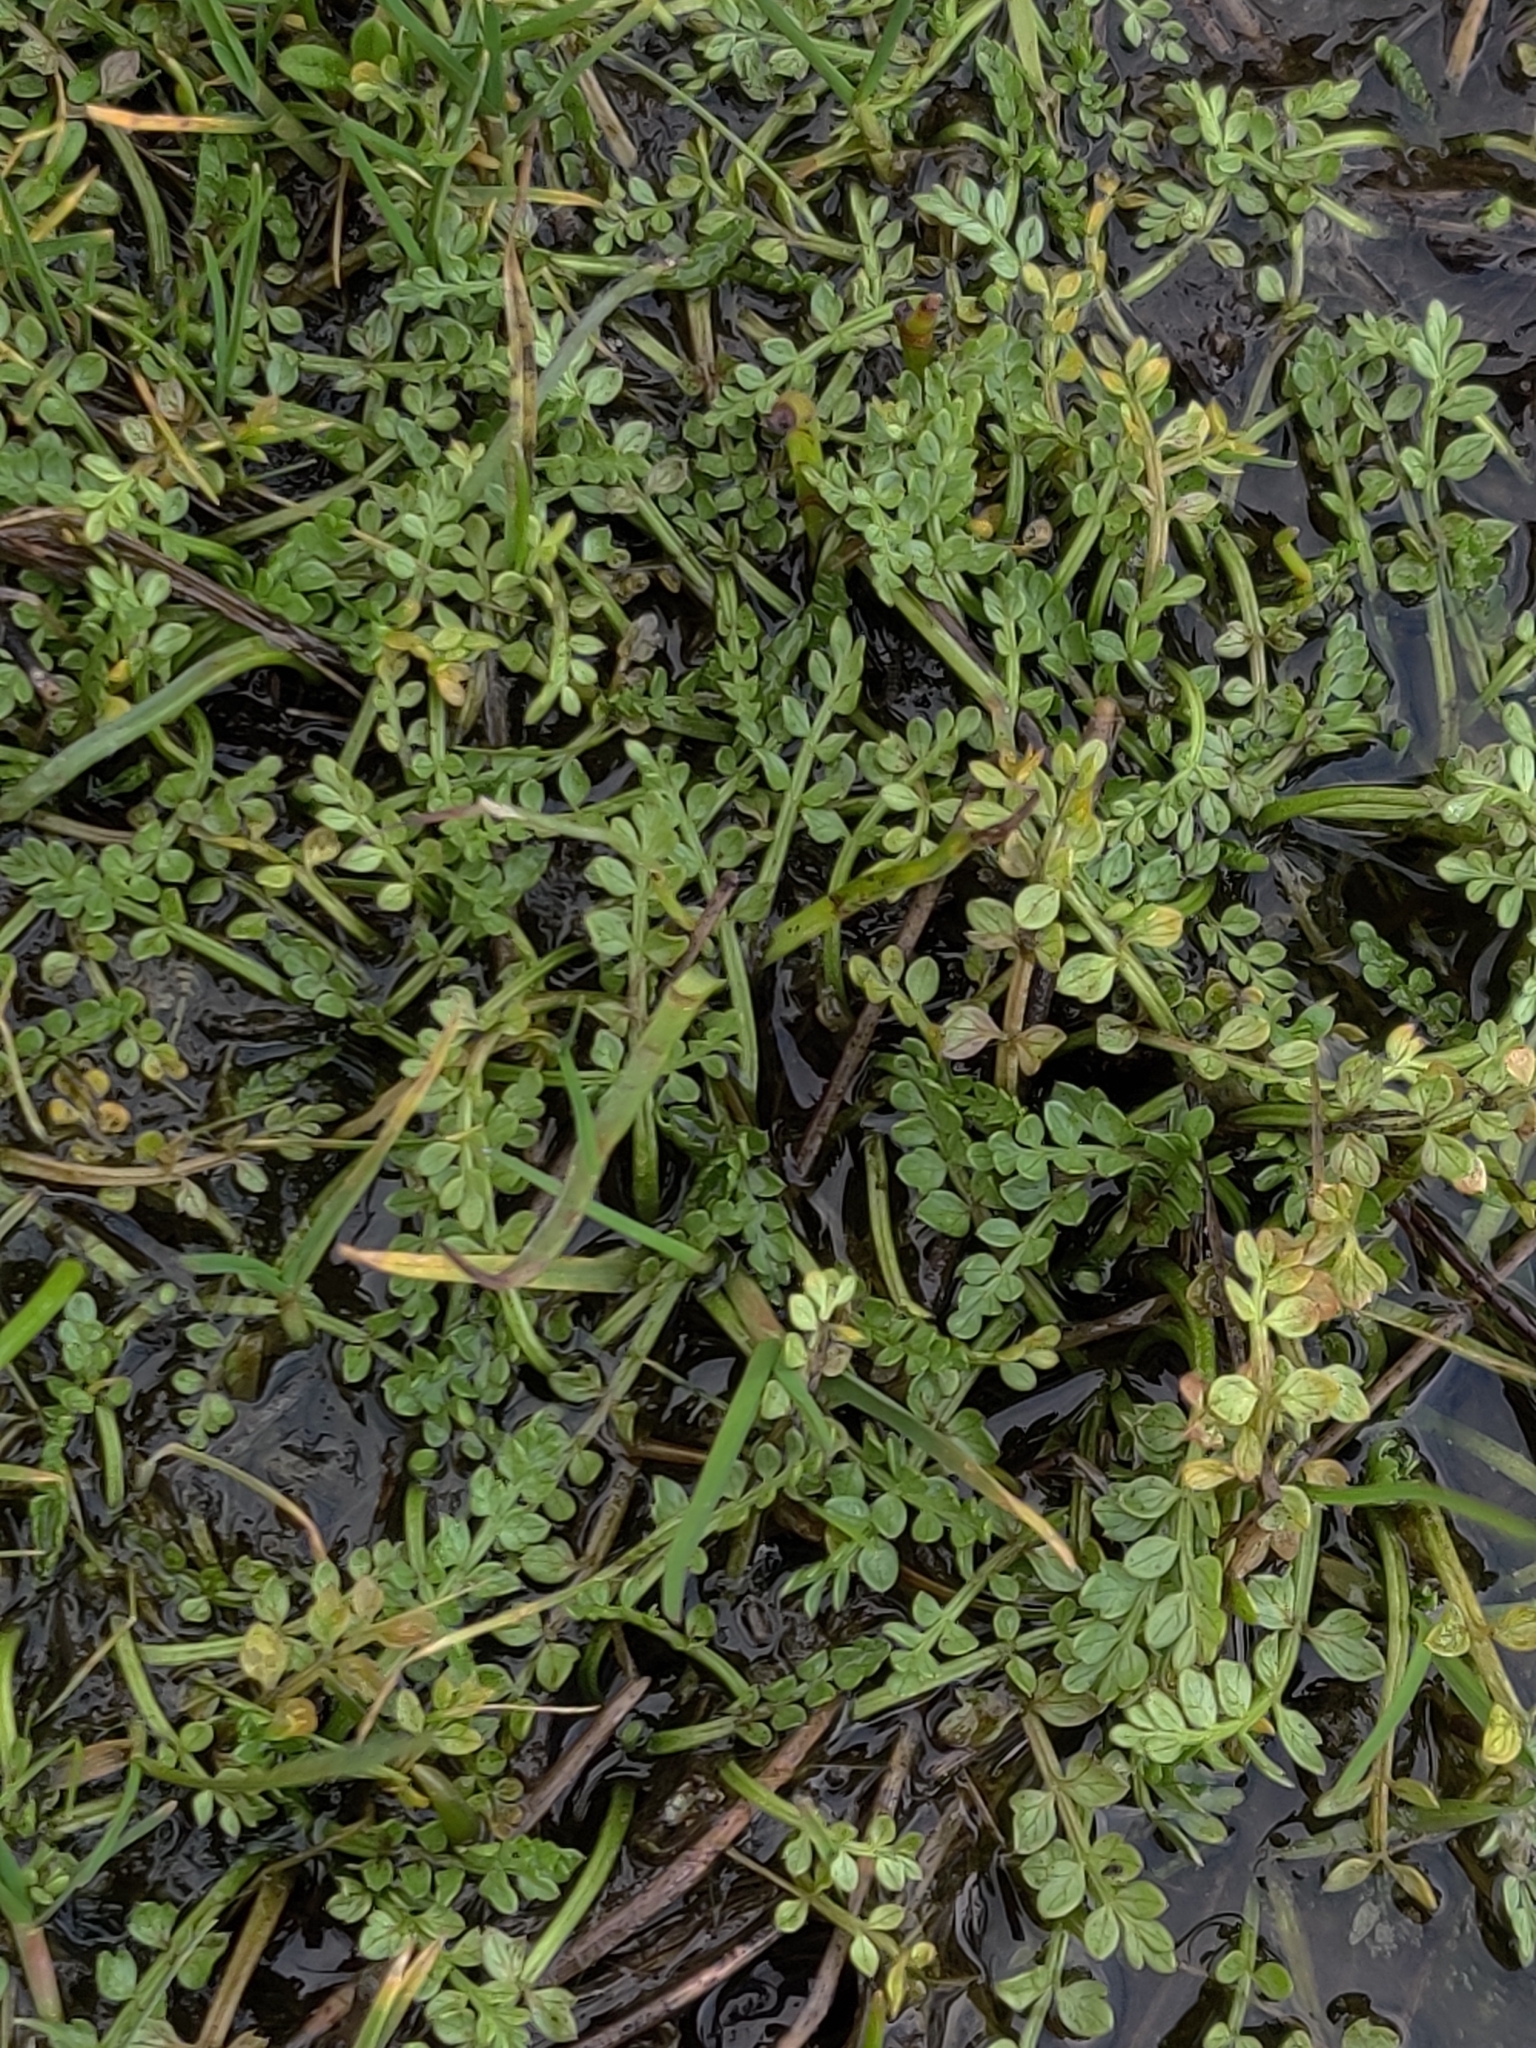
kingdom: Plantae
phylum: Tracheophyta
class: Magnoliopsida
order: Brassicales
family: Limnanthaceae
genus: Limnanthes
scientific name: Limnanthes macounii
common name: Macoun's meadowfoam
